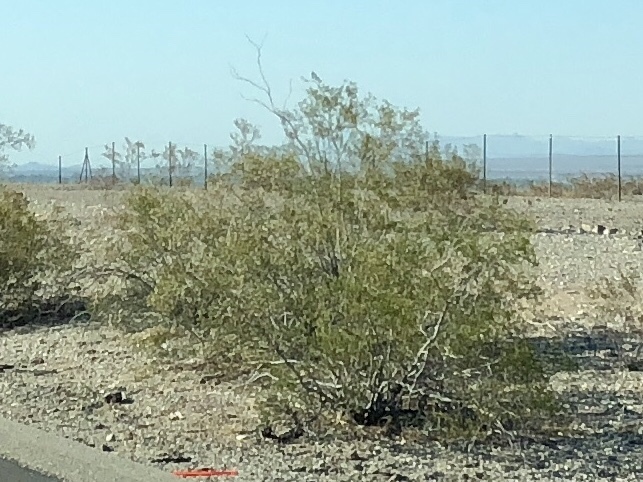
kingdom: Plantae
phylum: Tracheophyta
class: Magnoliopsida
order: Zygophyllales
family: Zygophyllaceae
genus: Larrea
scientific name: Larrea tridentata
